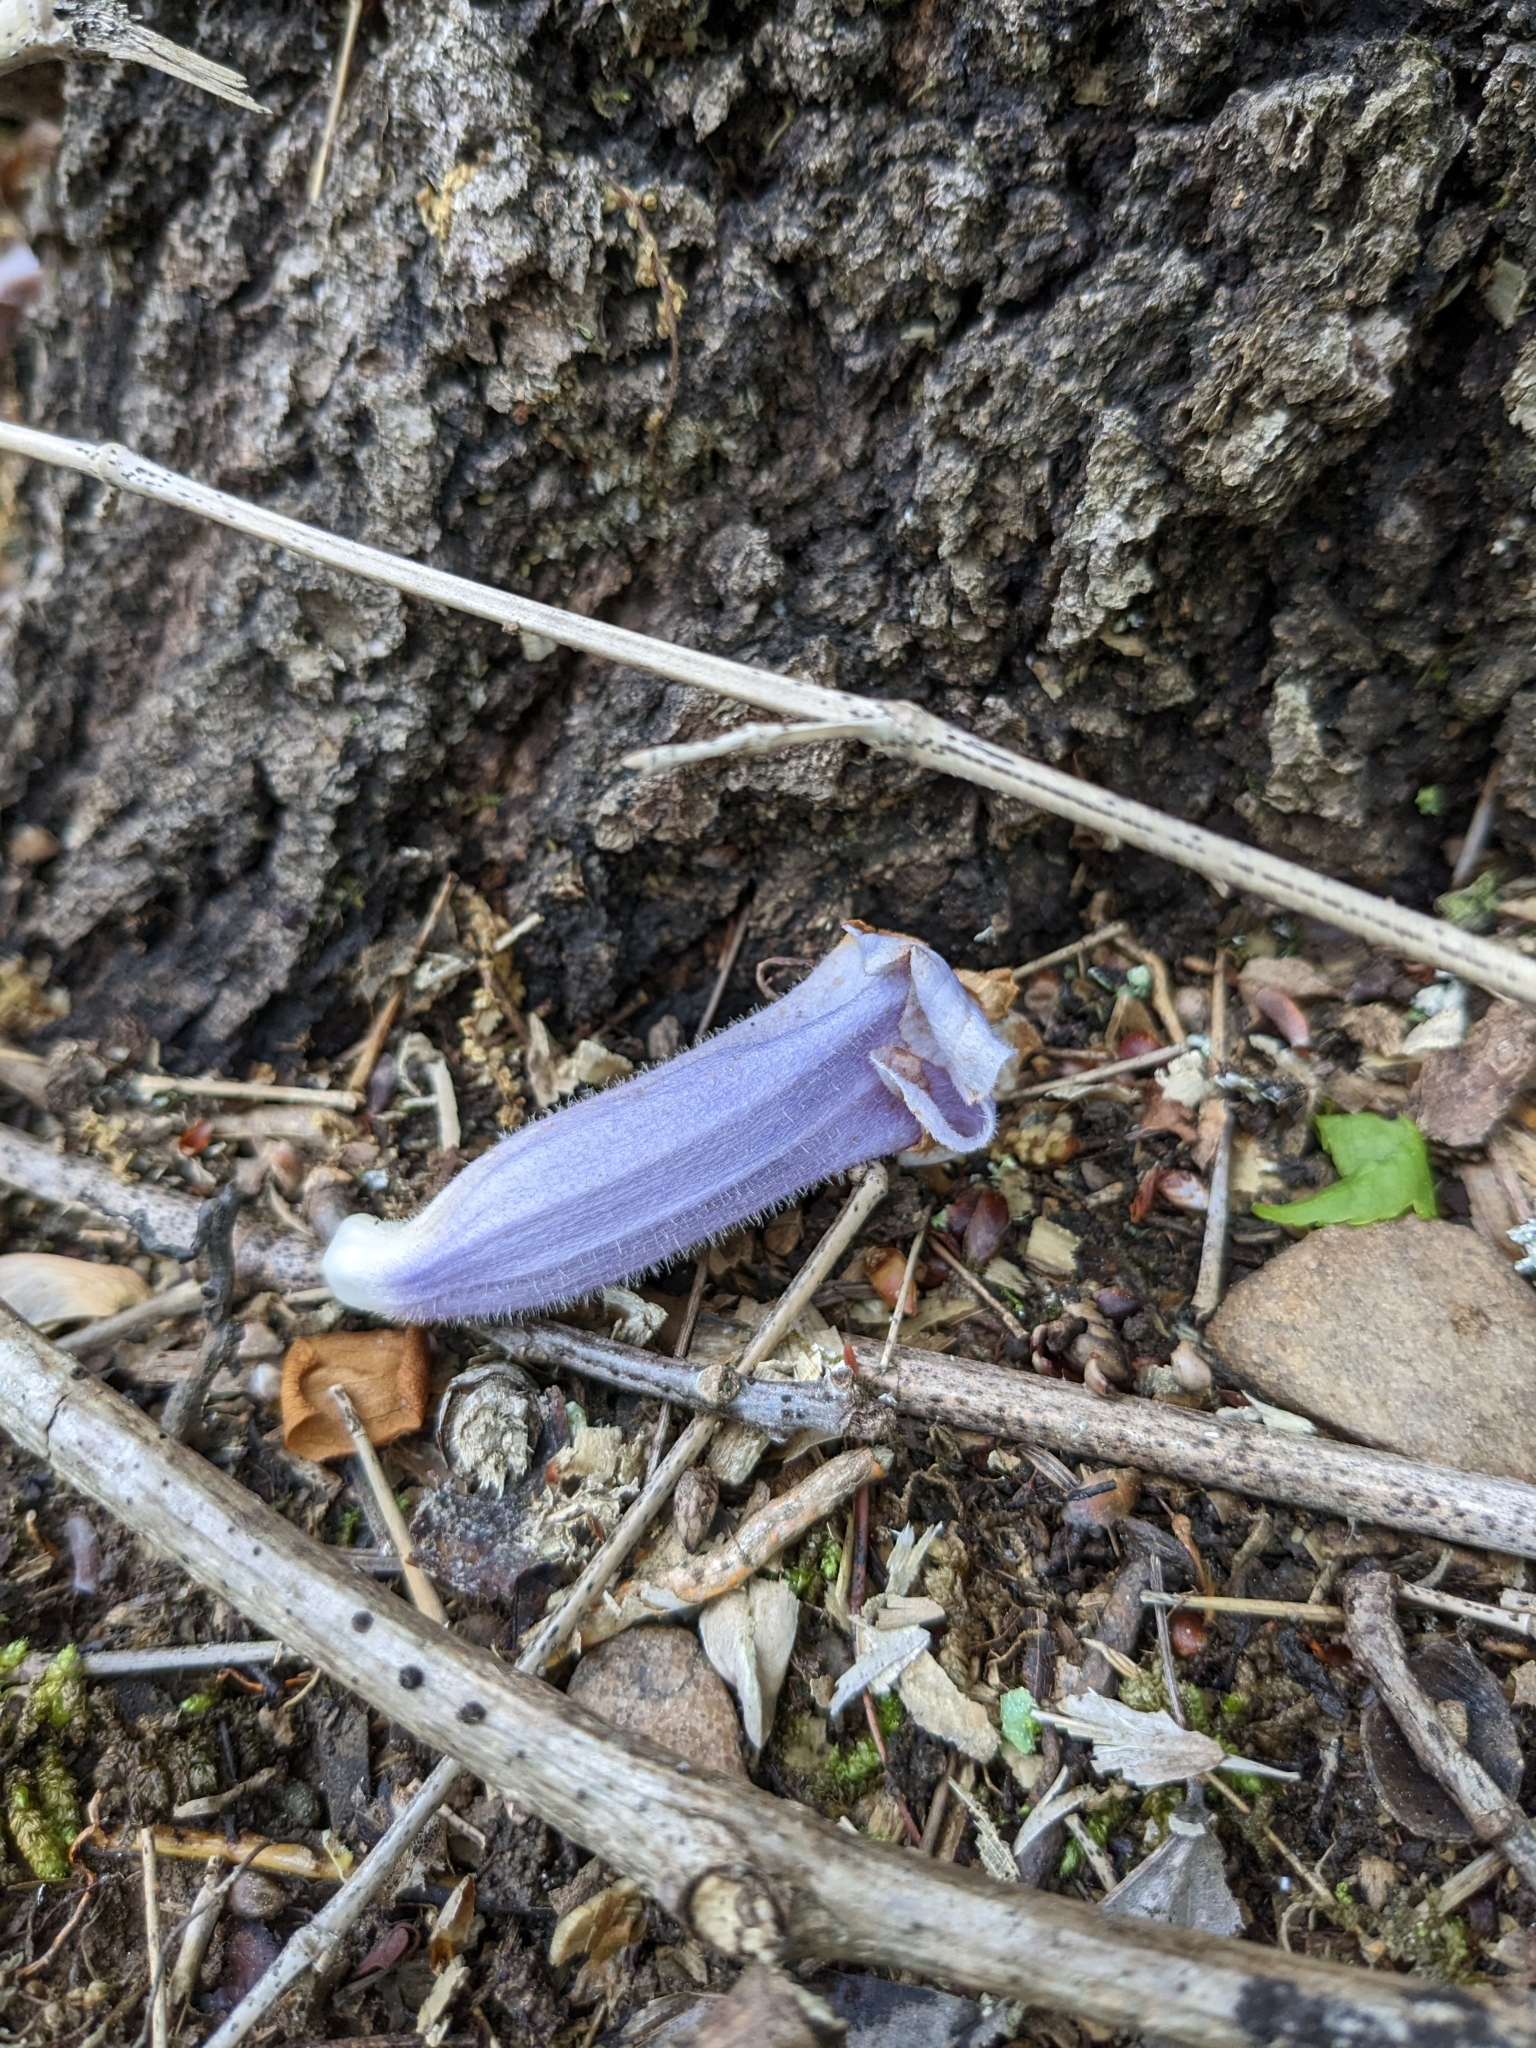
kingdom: Plantae
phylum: Tracheophyta
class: Magnoliopsida
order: Lamiales
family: Paulowniaceae
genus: Paulownia
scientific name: Paulownia tomentosa
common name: Foxglove-tree
